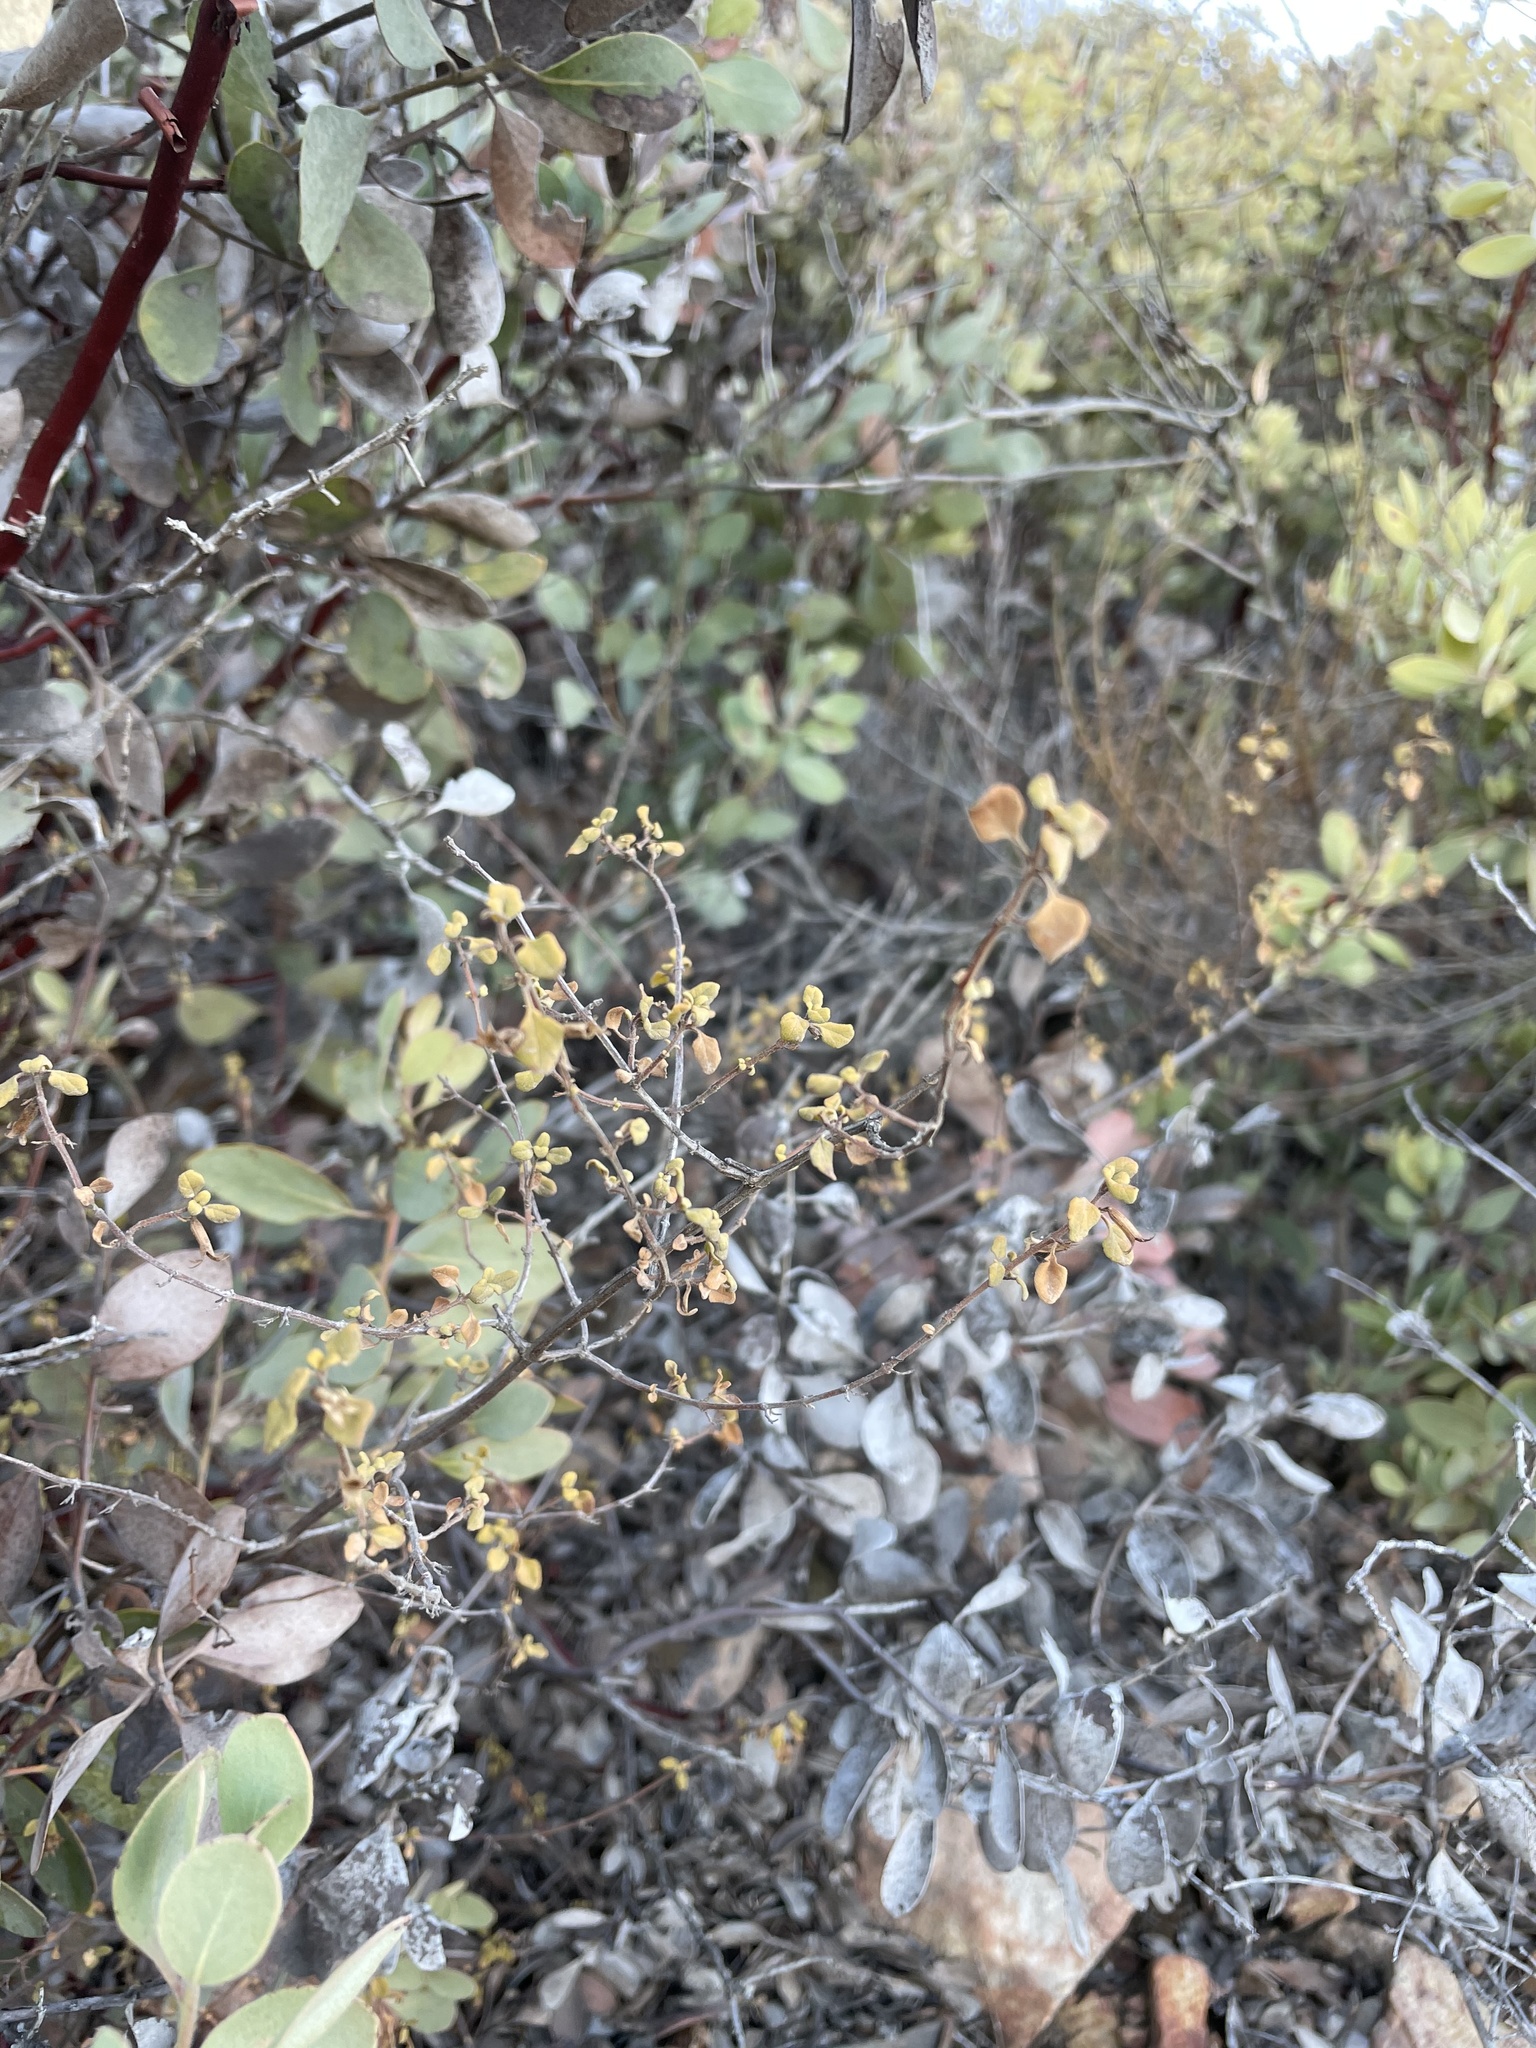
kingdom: Plantae
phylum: Tracheophyta
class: Magnoliopsida
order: Lamiales
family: Lamiaceae
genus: Clinopodium
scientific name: Clinopodium ganderi
